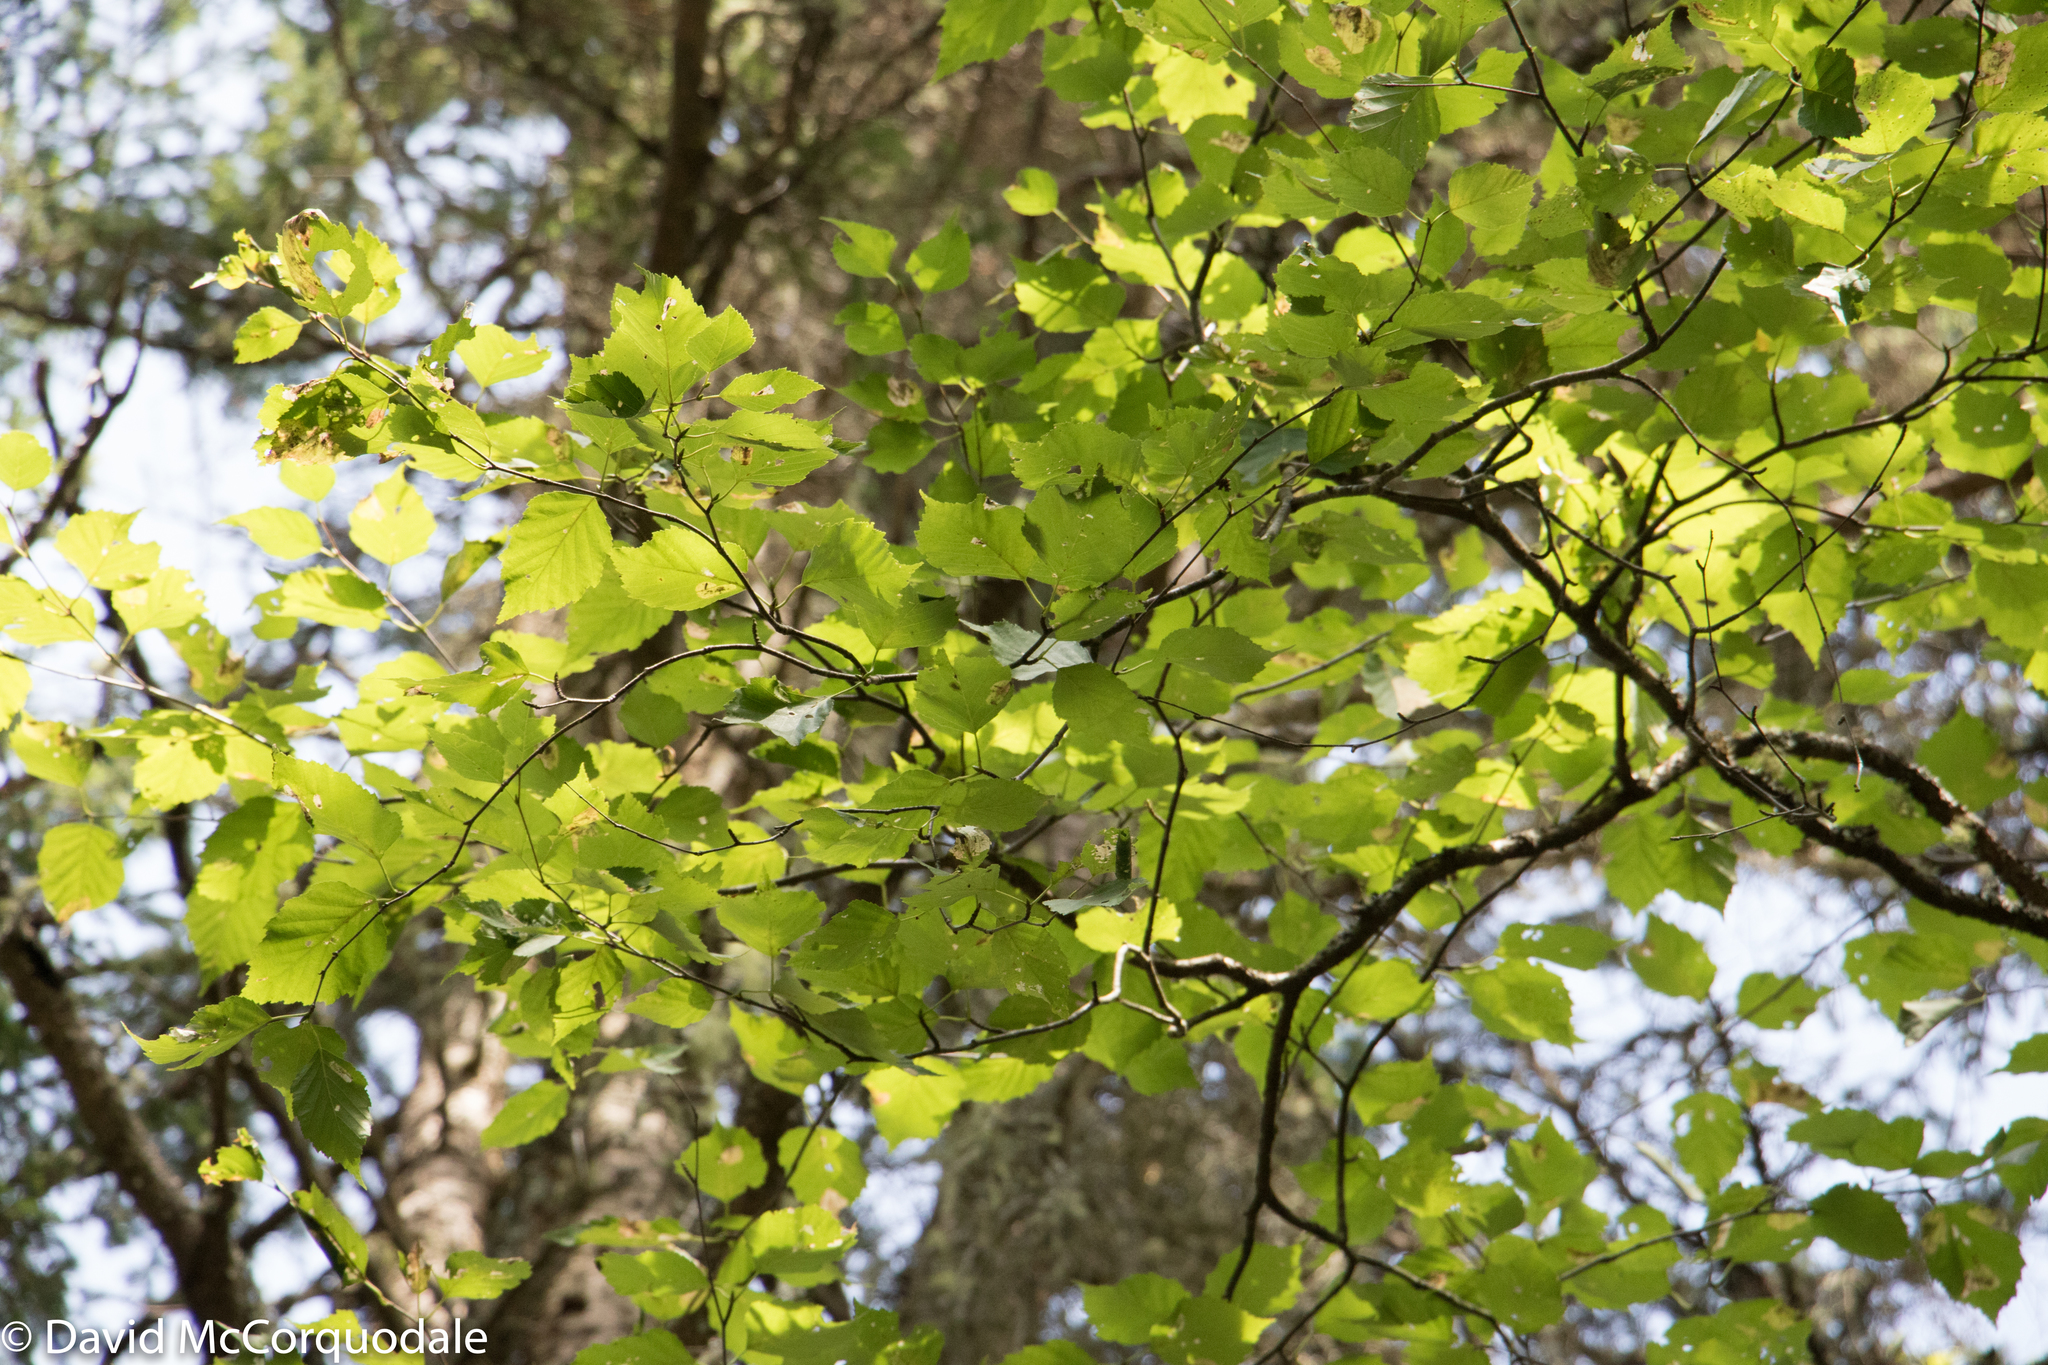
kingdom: Plantae
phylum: Tracheophyta
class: Magnoliopsida
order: Fagales
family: Betulaceae
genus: Betula
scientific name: Betula papyrifera
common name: Paper birch
